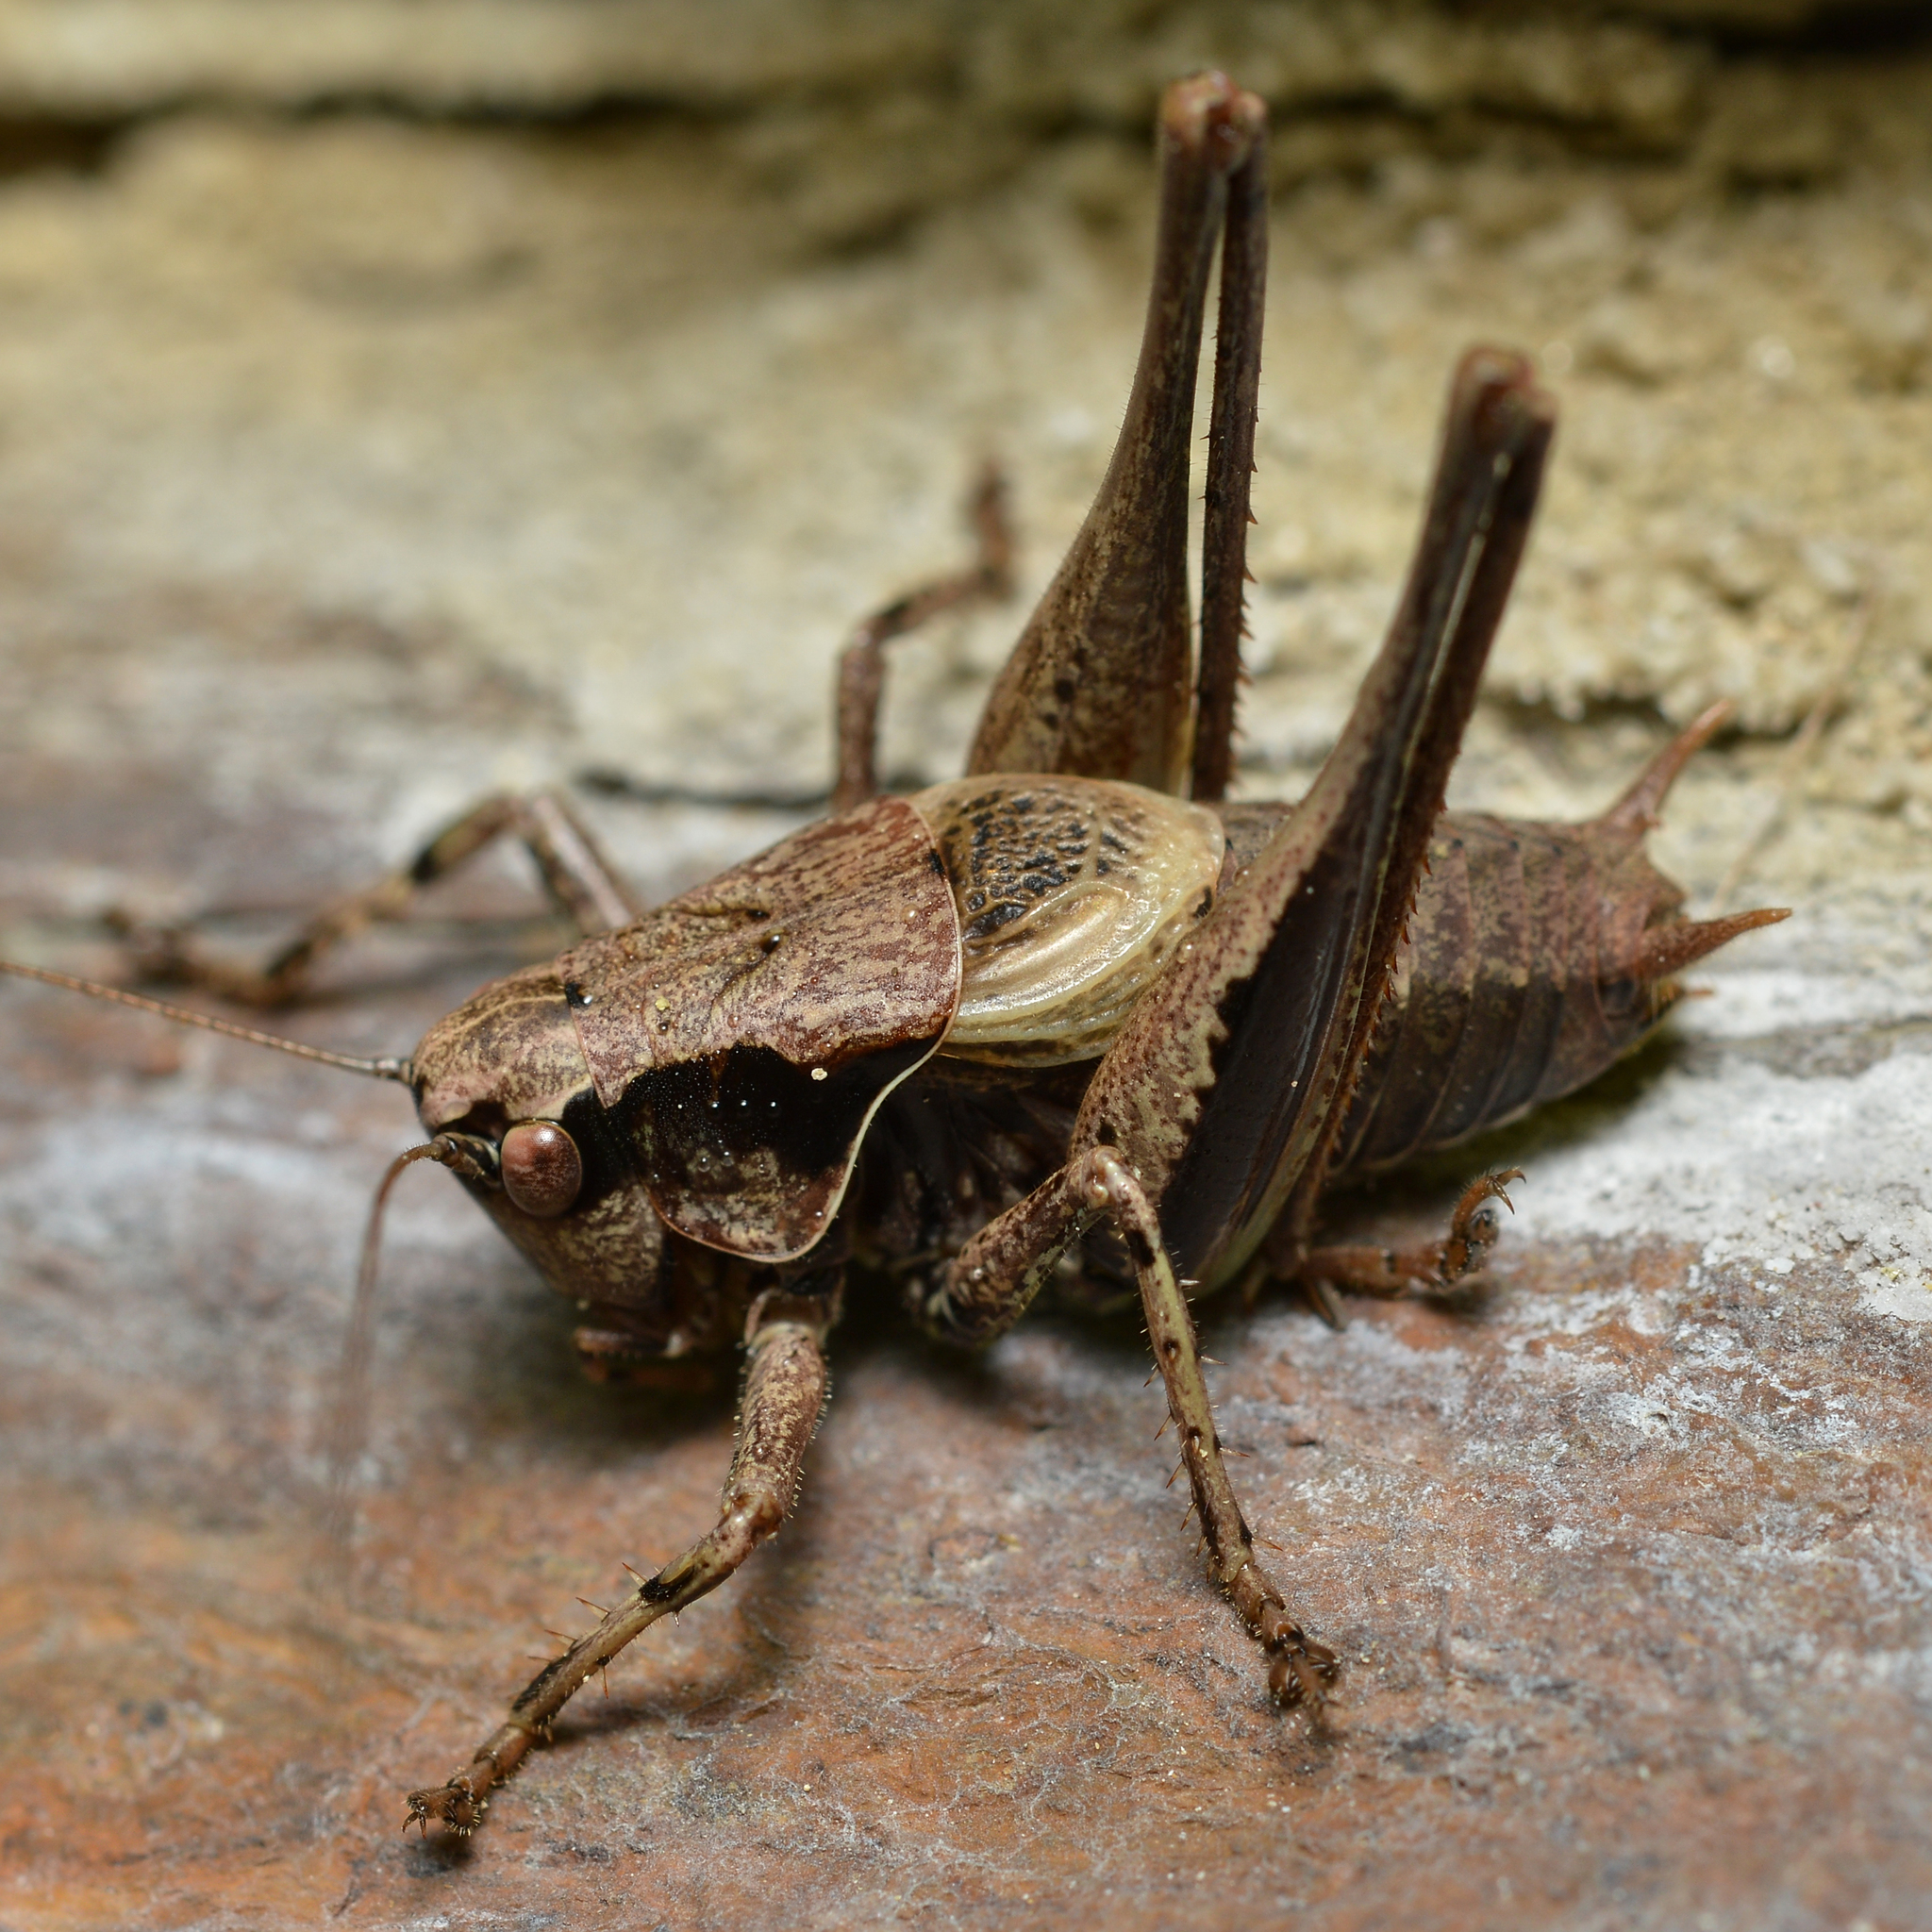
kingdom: Animalia
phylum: Arthropoda
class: Insecta
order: Orthoptera
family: Tettigoniidae
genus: Pholidoptera
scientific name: Pholidoptera griseoaptera
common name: Dark bush-cricket
